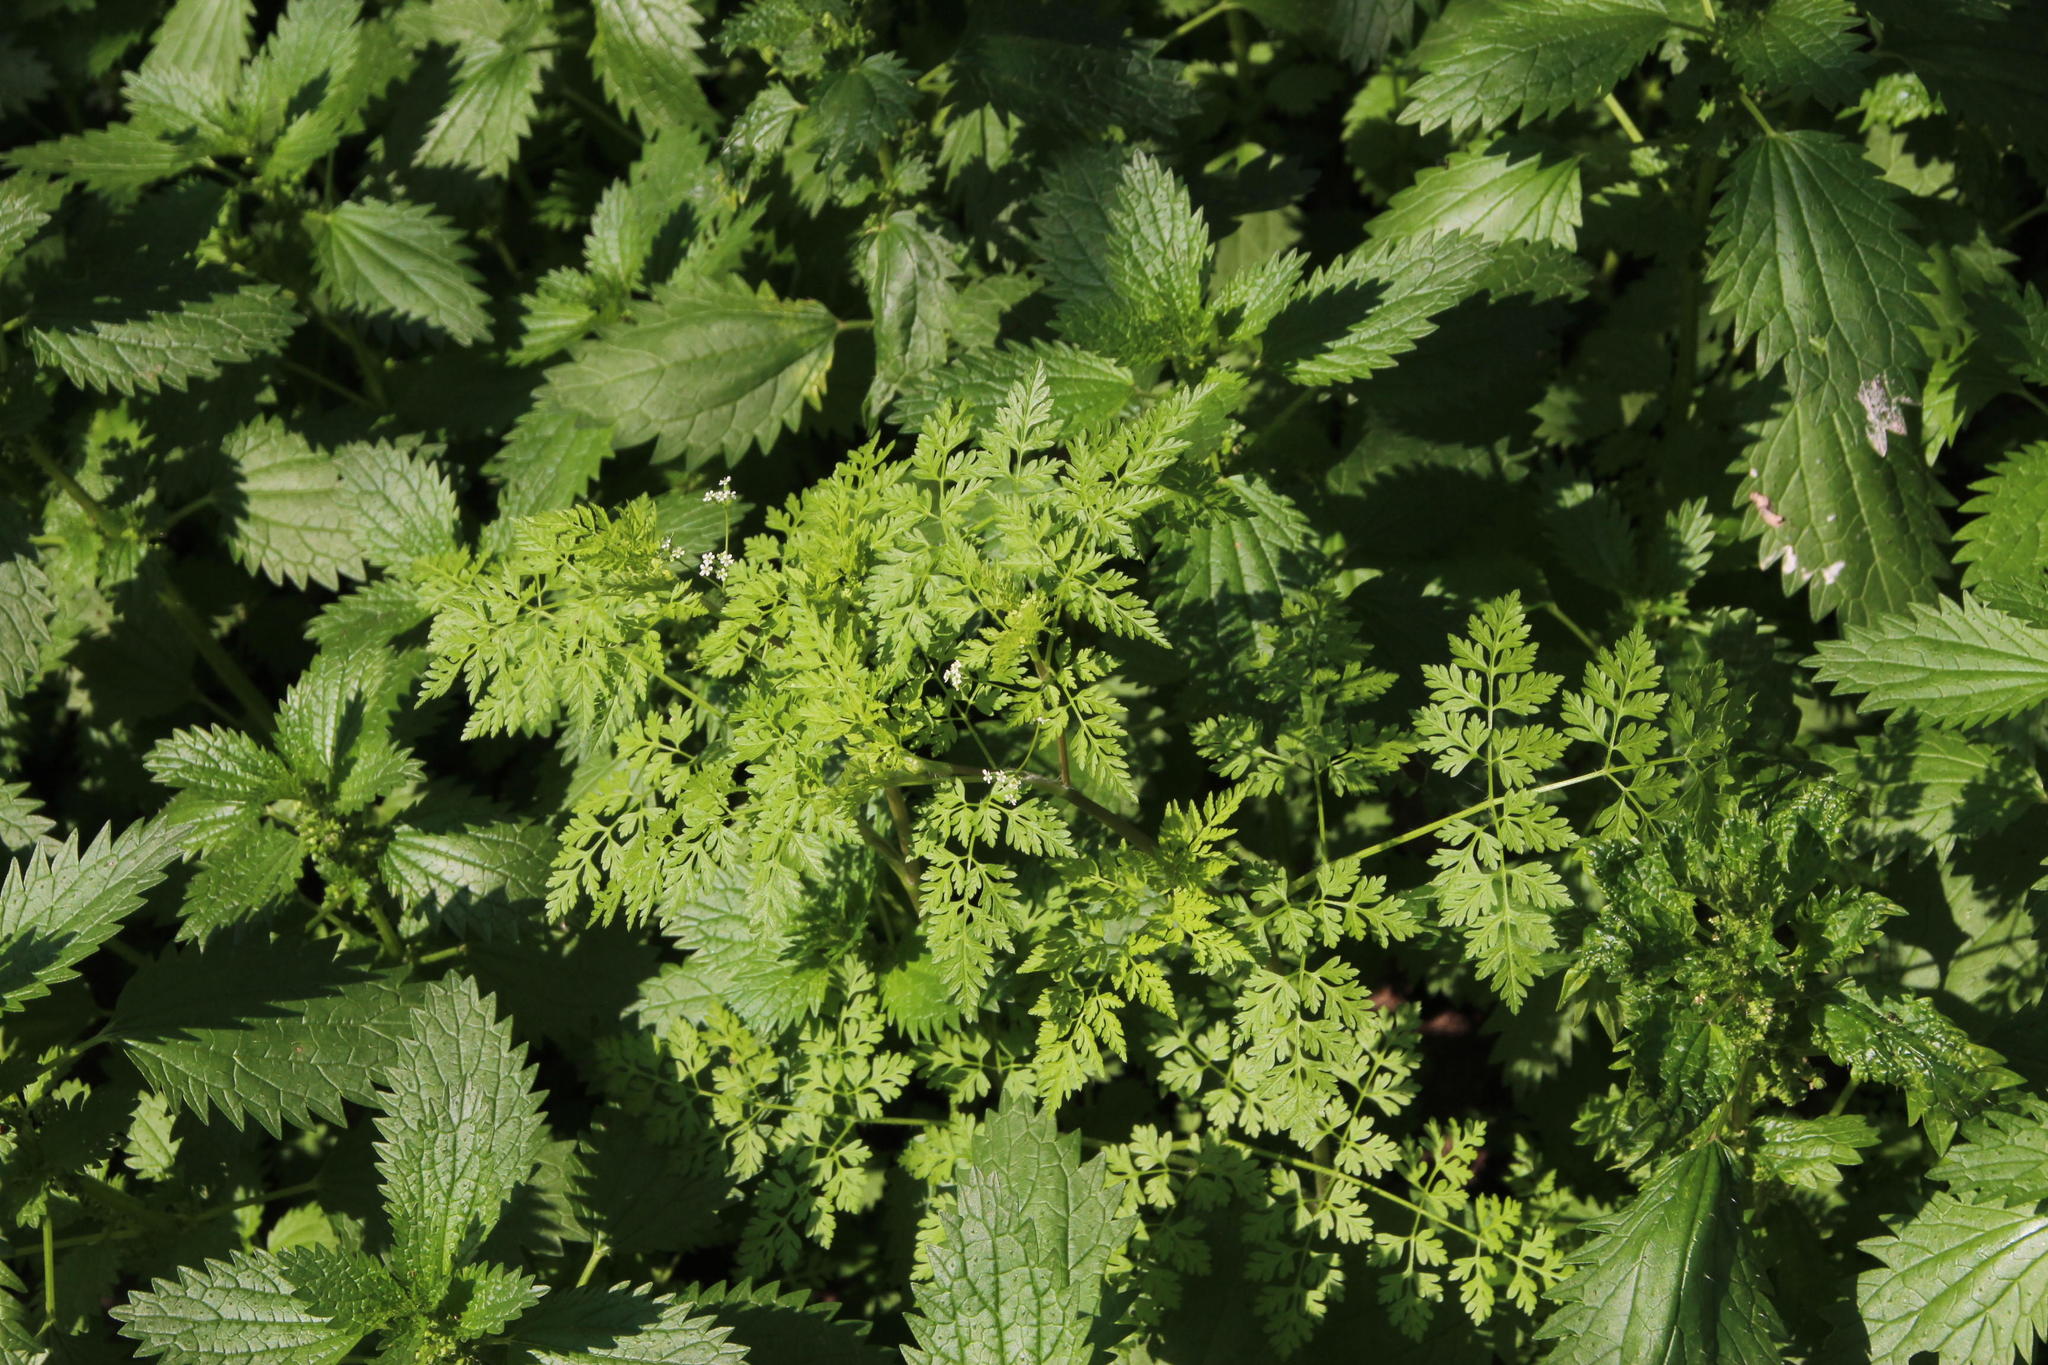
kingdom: Plantae
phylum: Tracheophyta
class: Magnoliopsida
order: Apiales
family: Apiaceae
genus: Anthriscus
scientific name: Anthriscus caucalis
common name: Bur chervil
